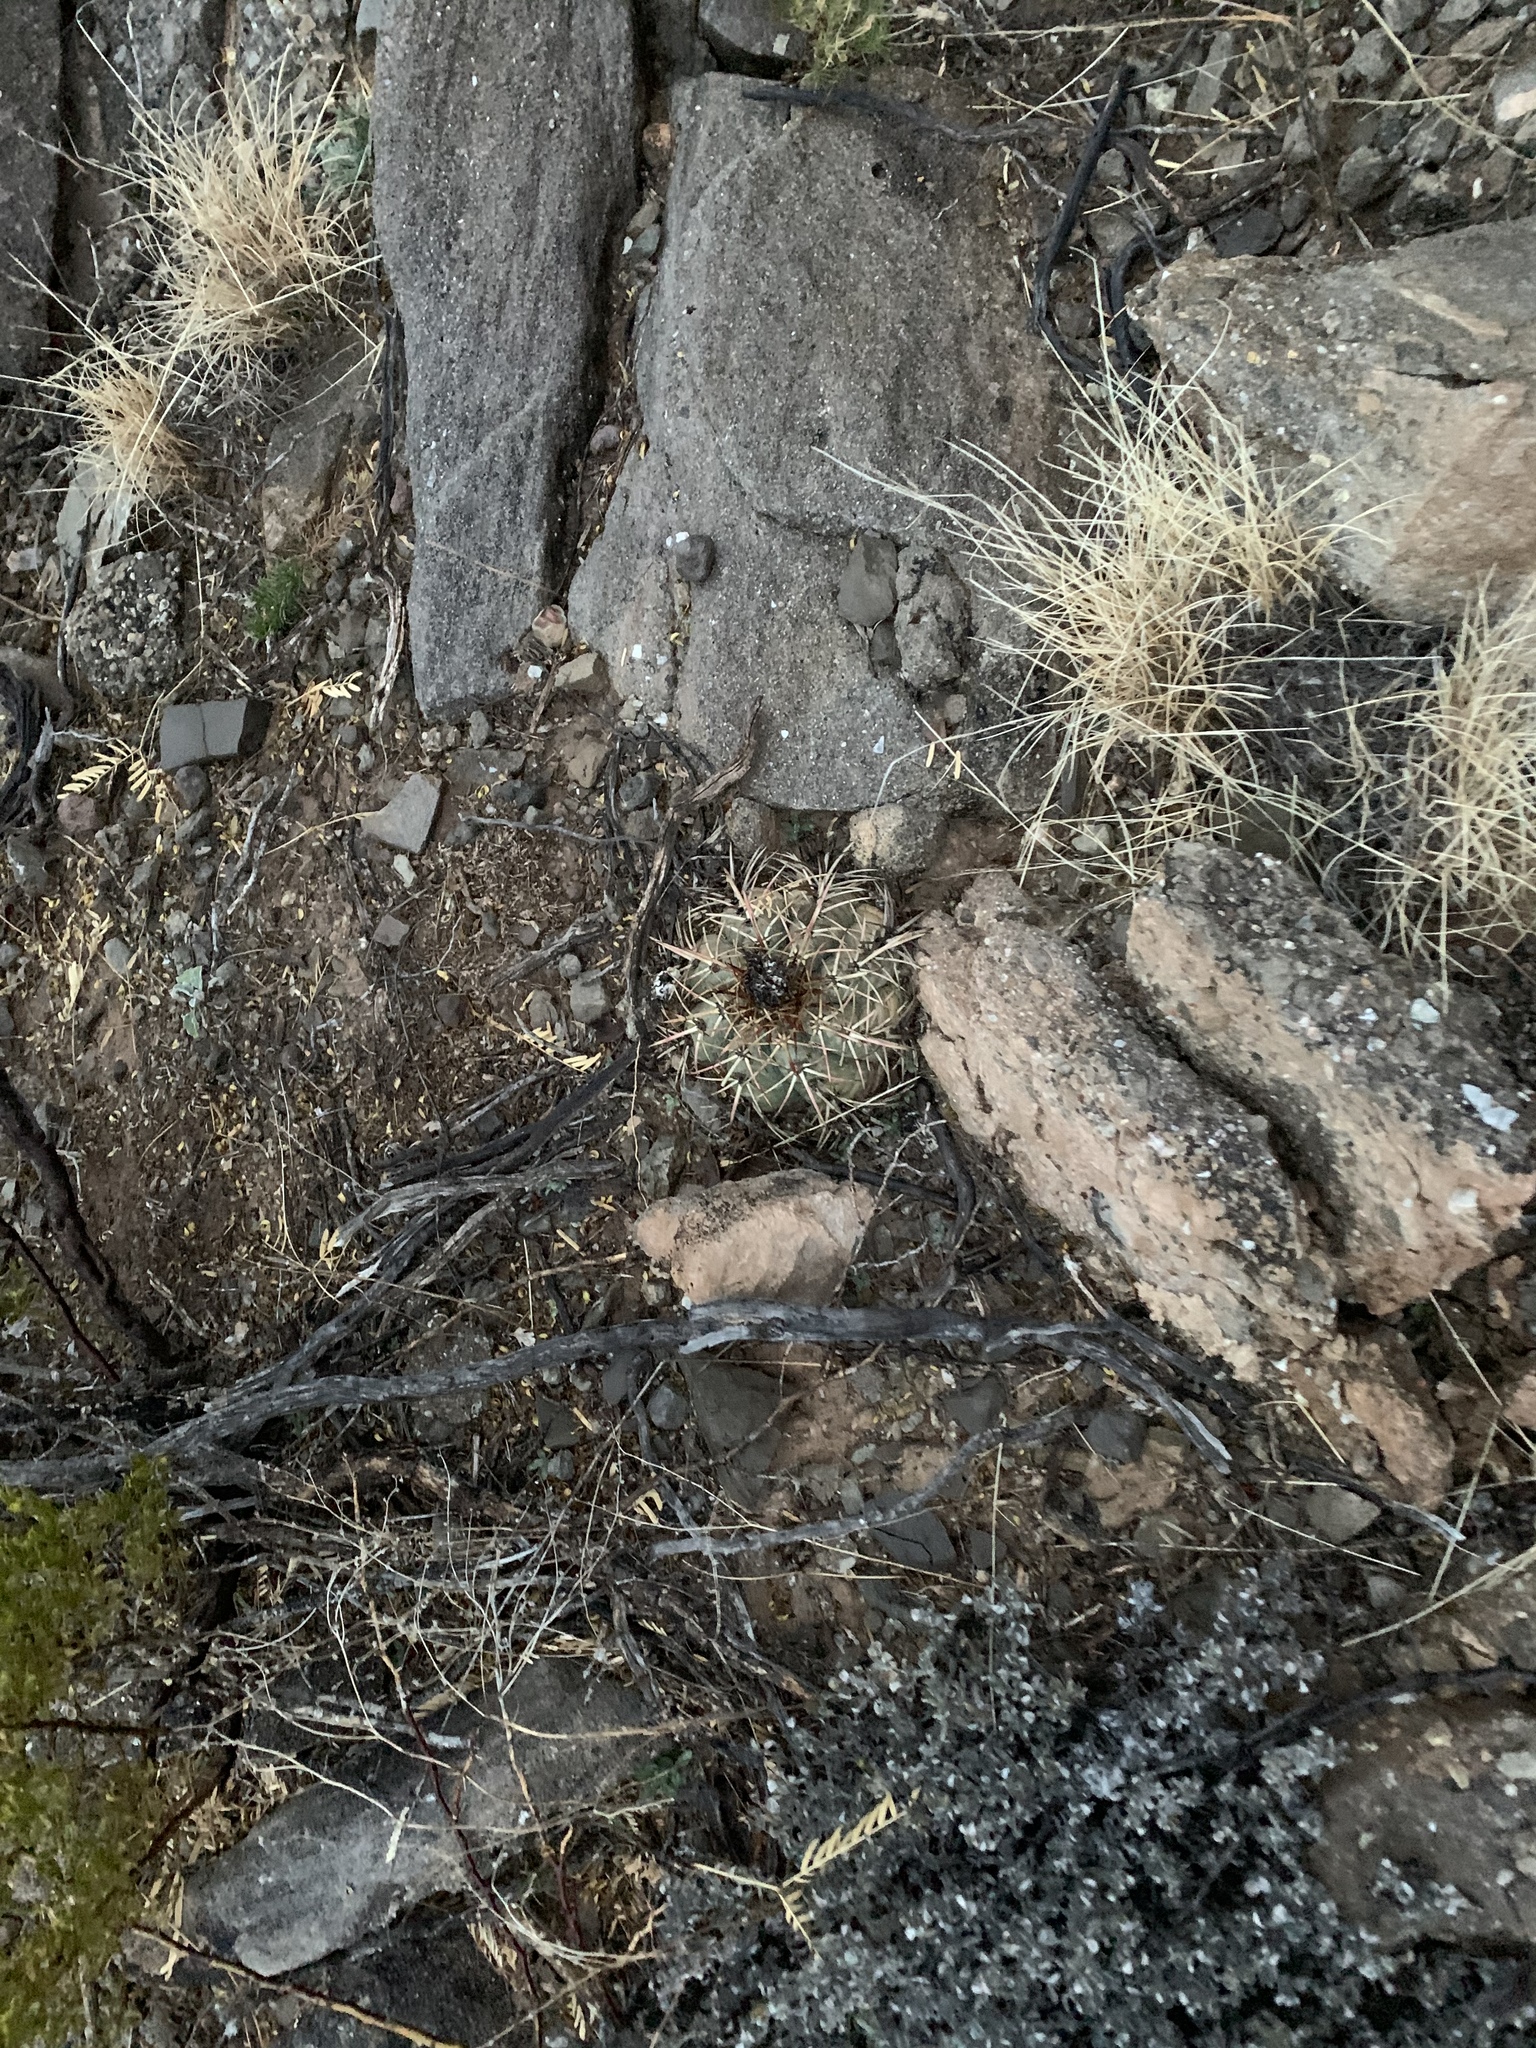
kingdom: Plantae
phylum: Tracheophyta
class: Magnoliopsida
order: Caryophyllales
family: Cactaceae
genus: Echinocactus
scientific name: Echinocactus horizonthalonius
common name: Devilshead
